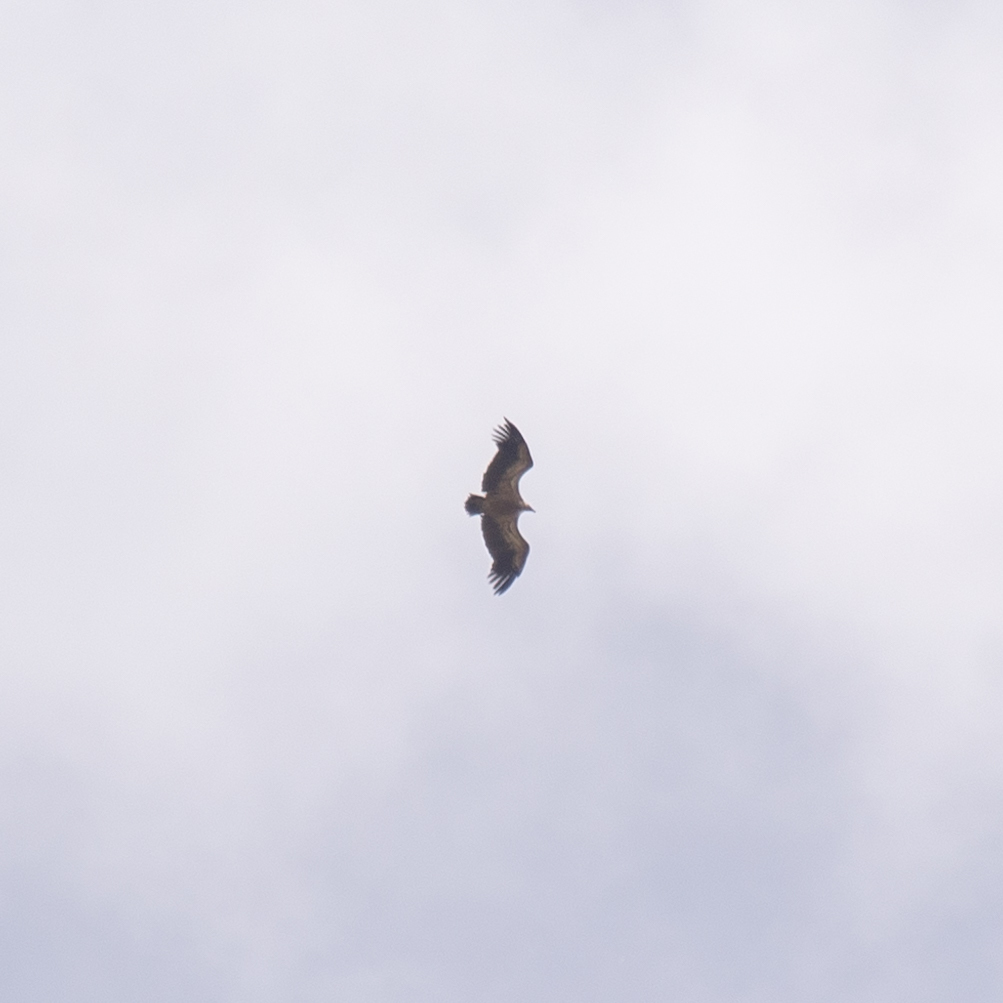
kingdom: Animalia
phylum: Chordata
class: Aves
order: Accipitriformes
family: Accipitridae
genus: Gyps
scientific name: Gyps fulvus
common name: Griffon vulture
